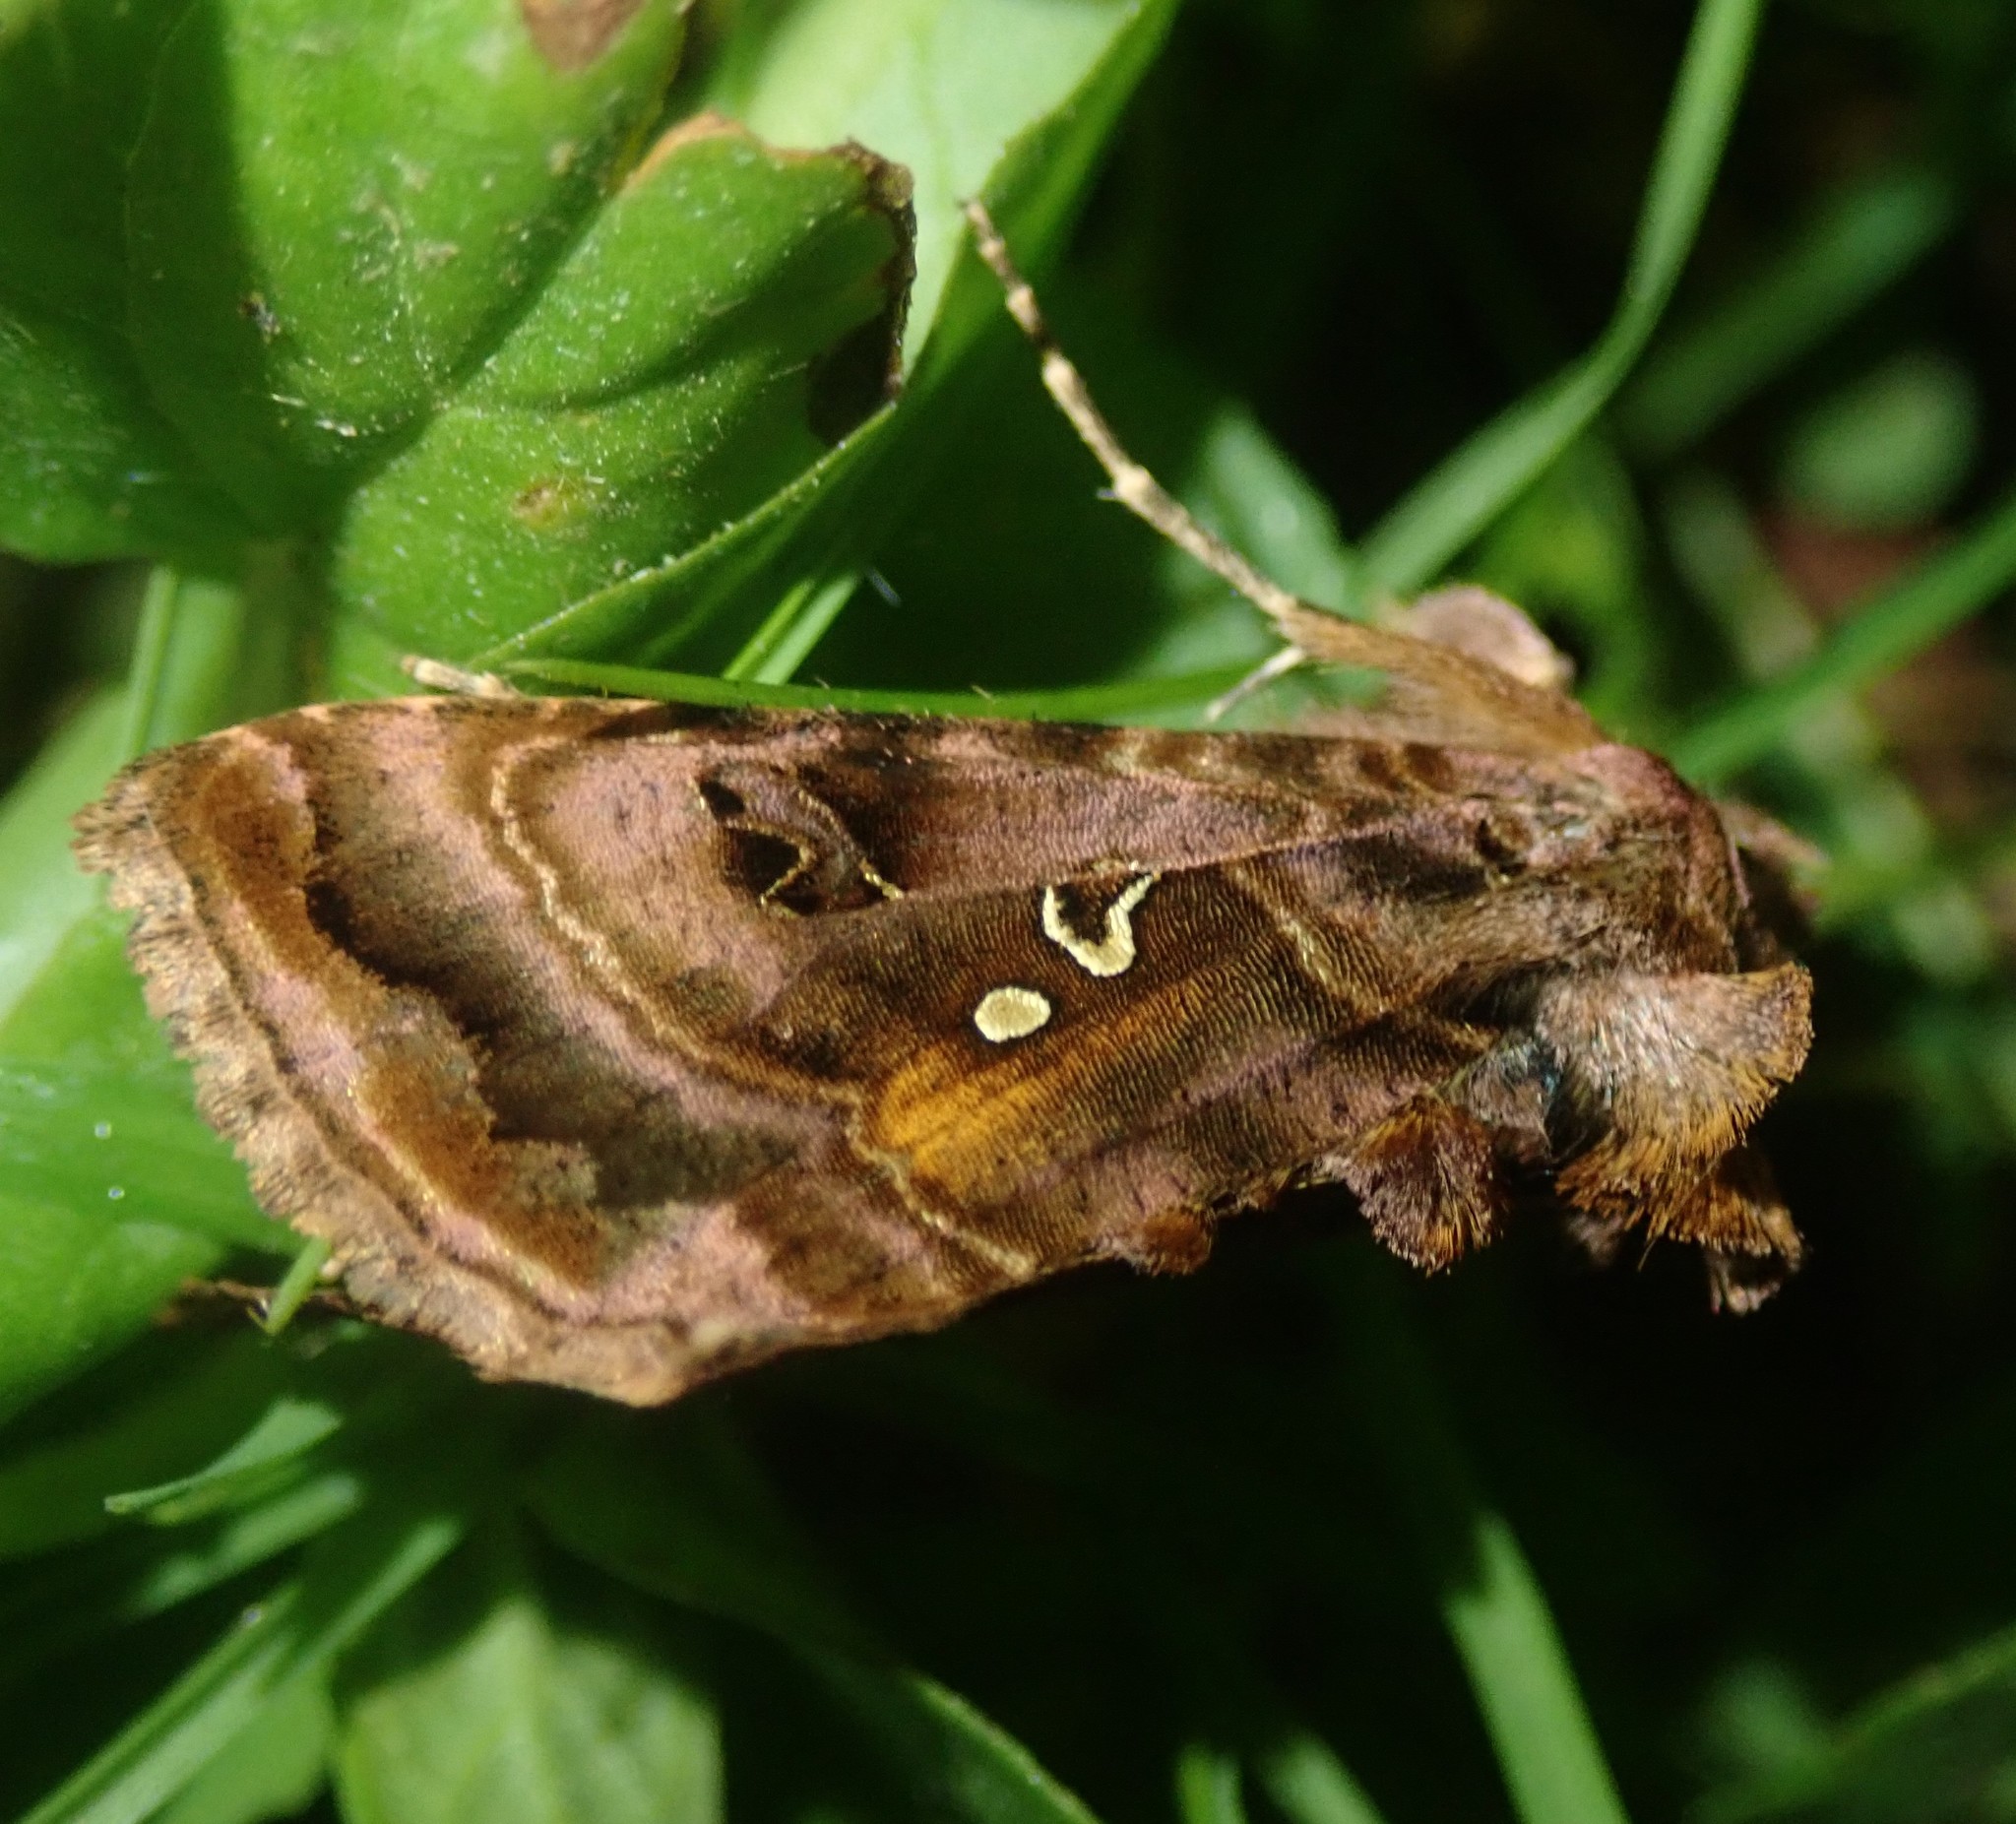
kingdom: Animalia
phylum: Arthropoda
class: Insecta
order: Lepidoptera
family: Noctuidae
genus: Autographa
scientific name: Autographa pulchrina
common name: Beautiful golden y
